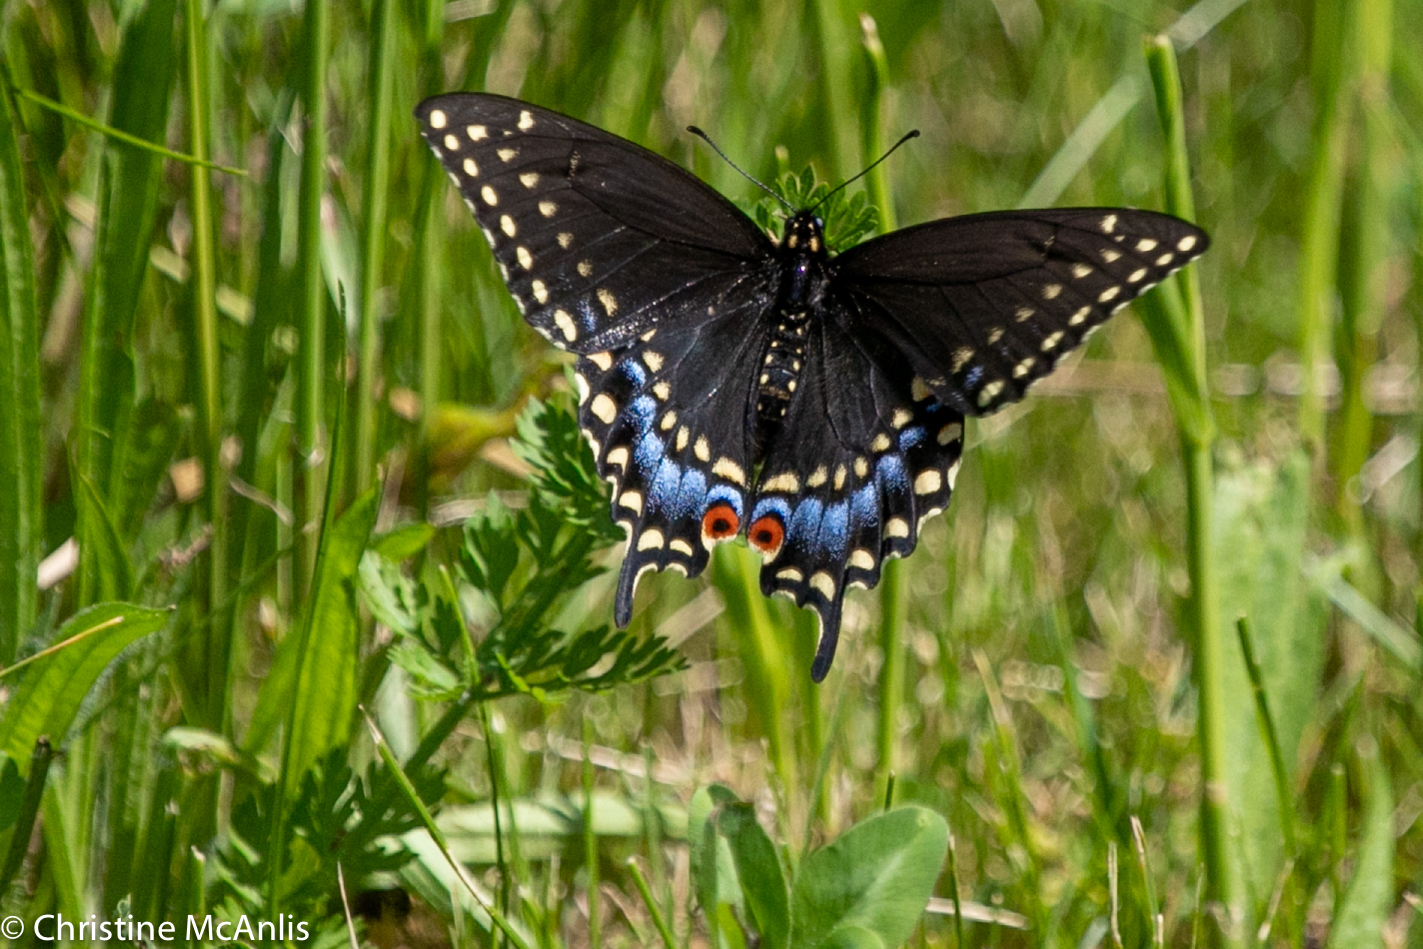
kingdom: Animalia
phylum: Arthropoda
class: Insecta
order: Lepidoptera
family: Papilionidae
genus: Papilio
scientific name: Papilio polyxenes
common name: Black swallowtail
